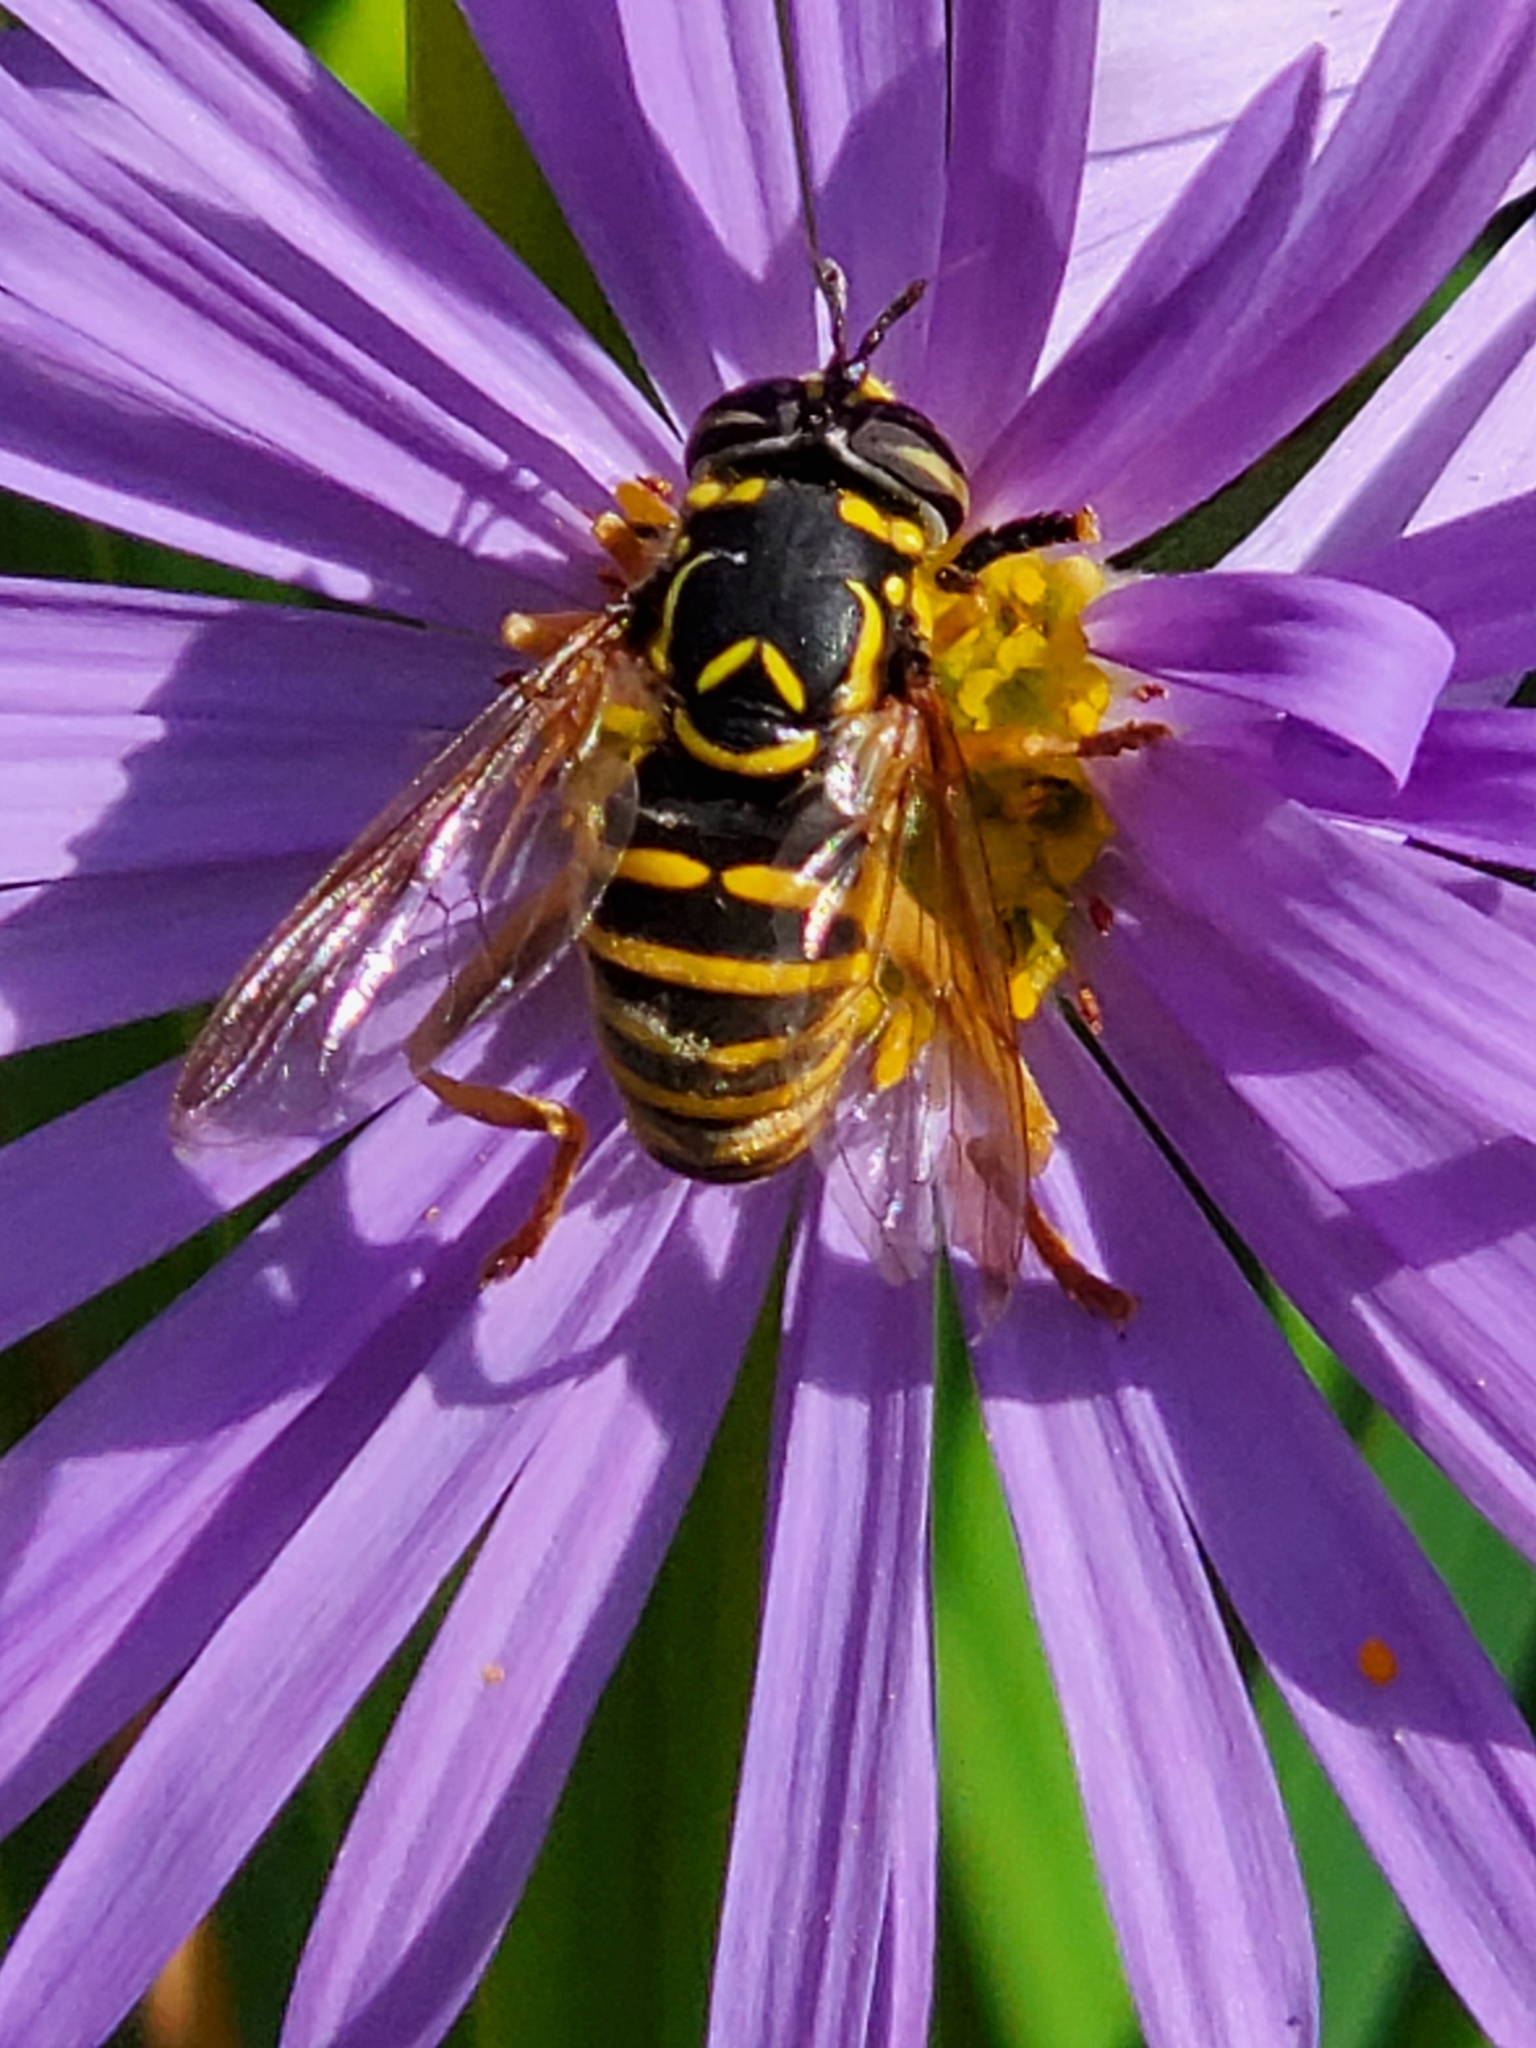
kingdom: Animalia
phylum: Arthropoda
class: Insecta
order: Diptera
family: Syrphidae
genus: Spilomyia
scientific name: Spilomyia citima
